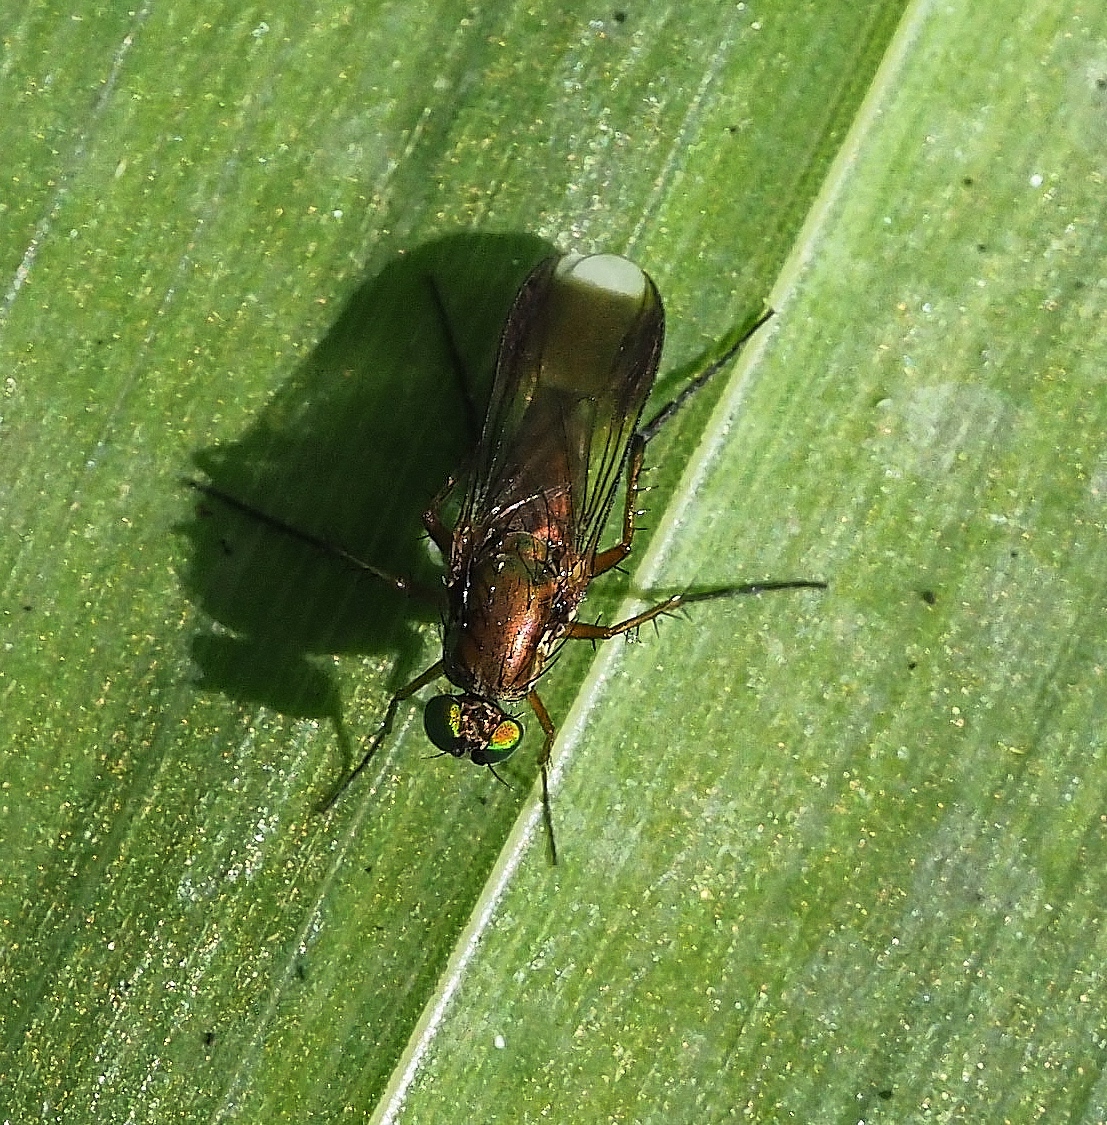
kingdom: Animalia
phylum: Arthropoda
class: Insecta
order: Diptera
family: Dolichopodidae
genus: Poecilobothrus
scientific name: Poecilobothrus nobilitatus
